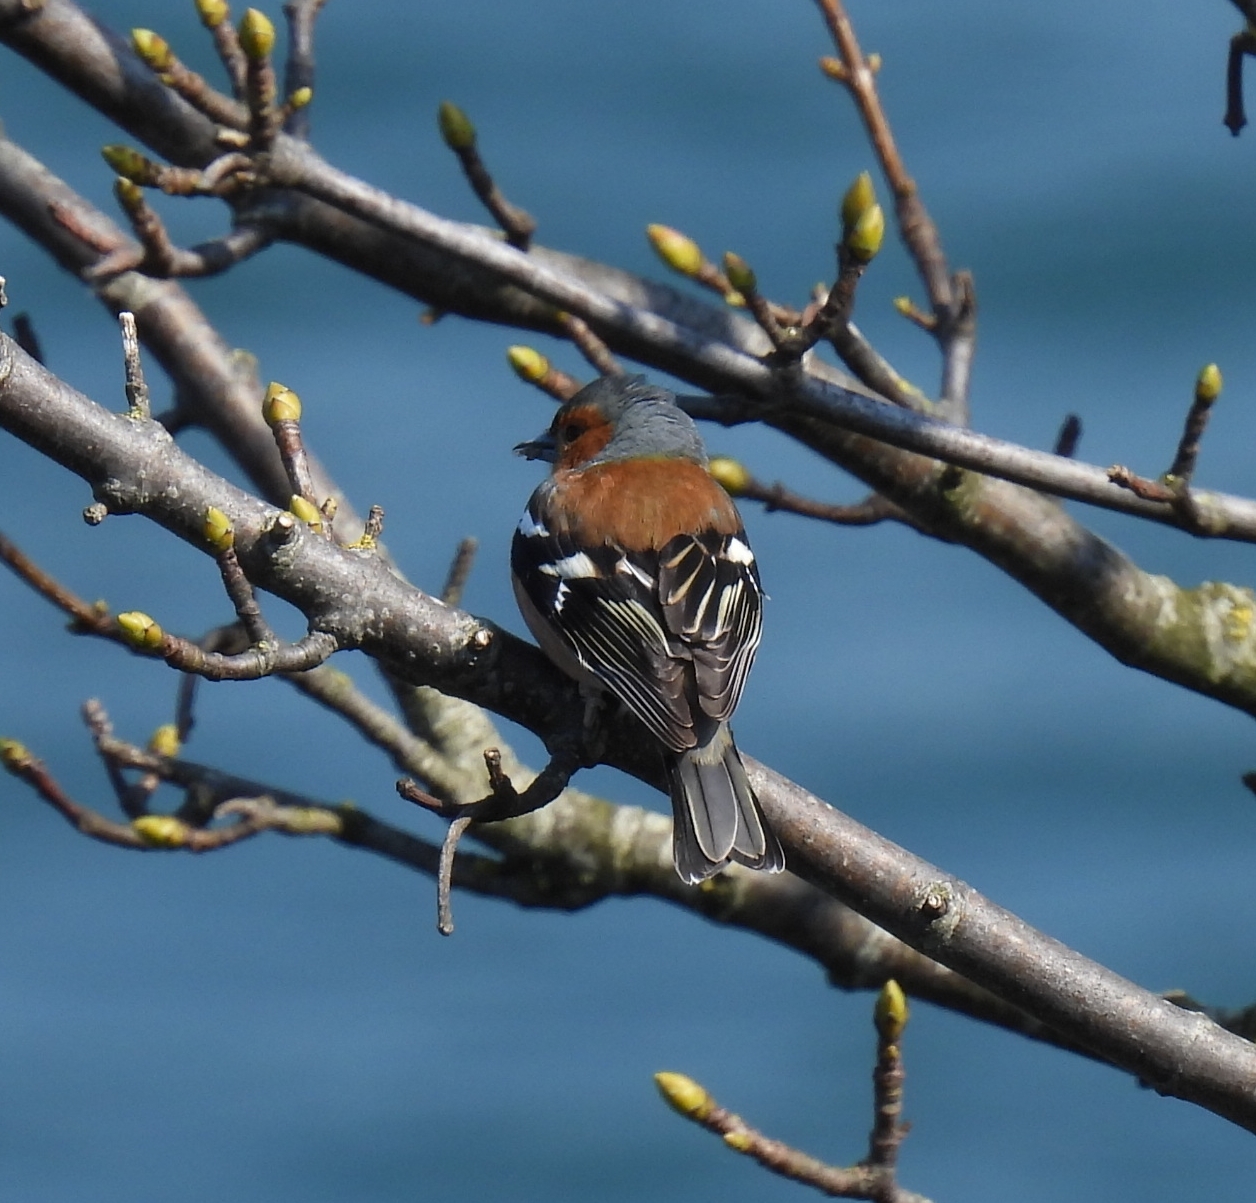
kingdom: Animalia
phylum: Chordata
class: Aves
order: Passeriformes
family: Fringillidae
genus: Fringilla
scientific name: Fringilla coelebs
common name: Common chaffinch
